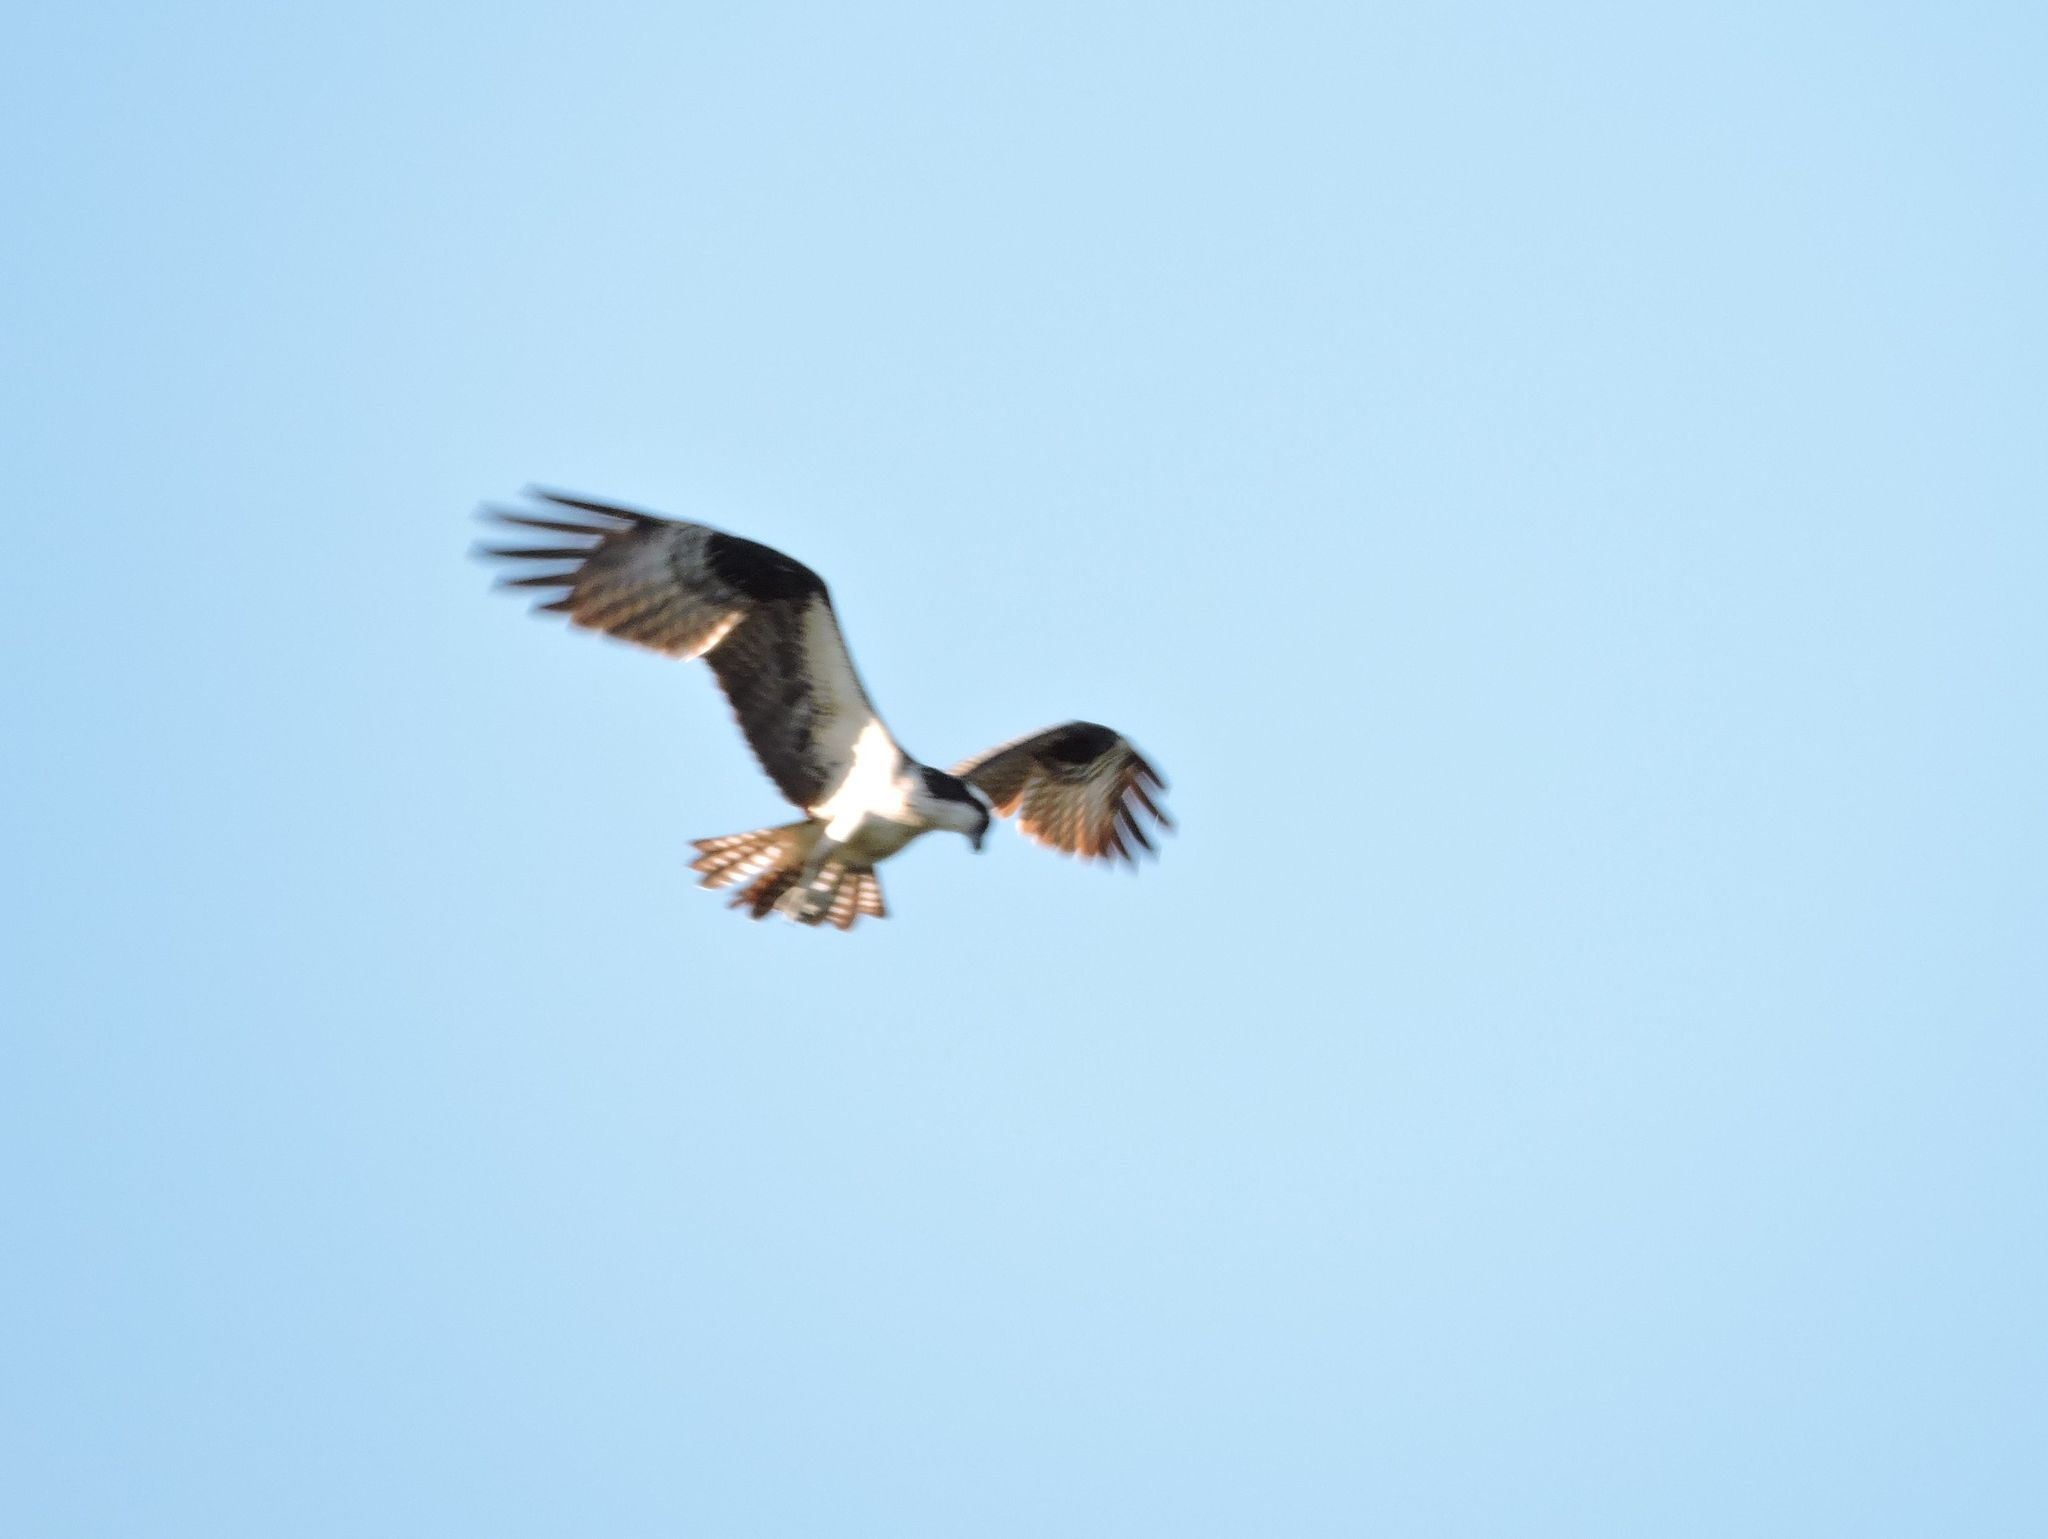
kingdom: Animalia
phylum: Chordata
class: Aves
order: Accipitriformes
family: Pandionidae
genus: Pandion
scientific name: Pandion haliaetus
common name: Osprey
